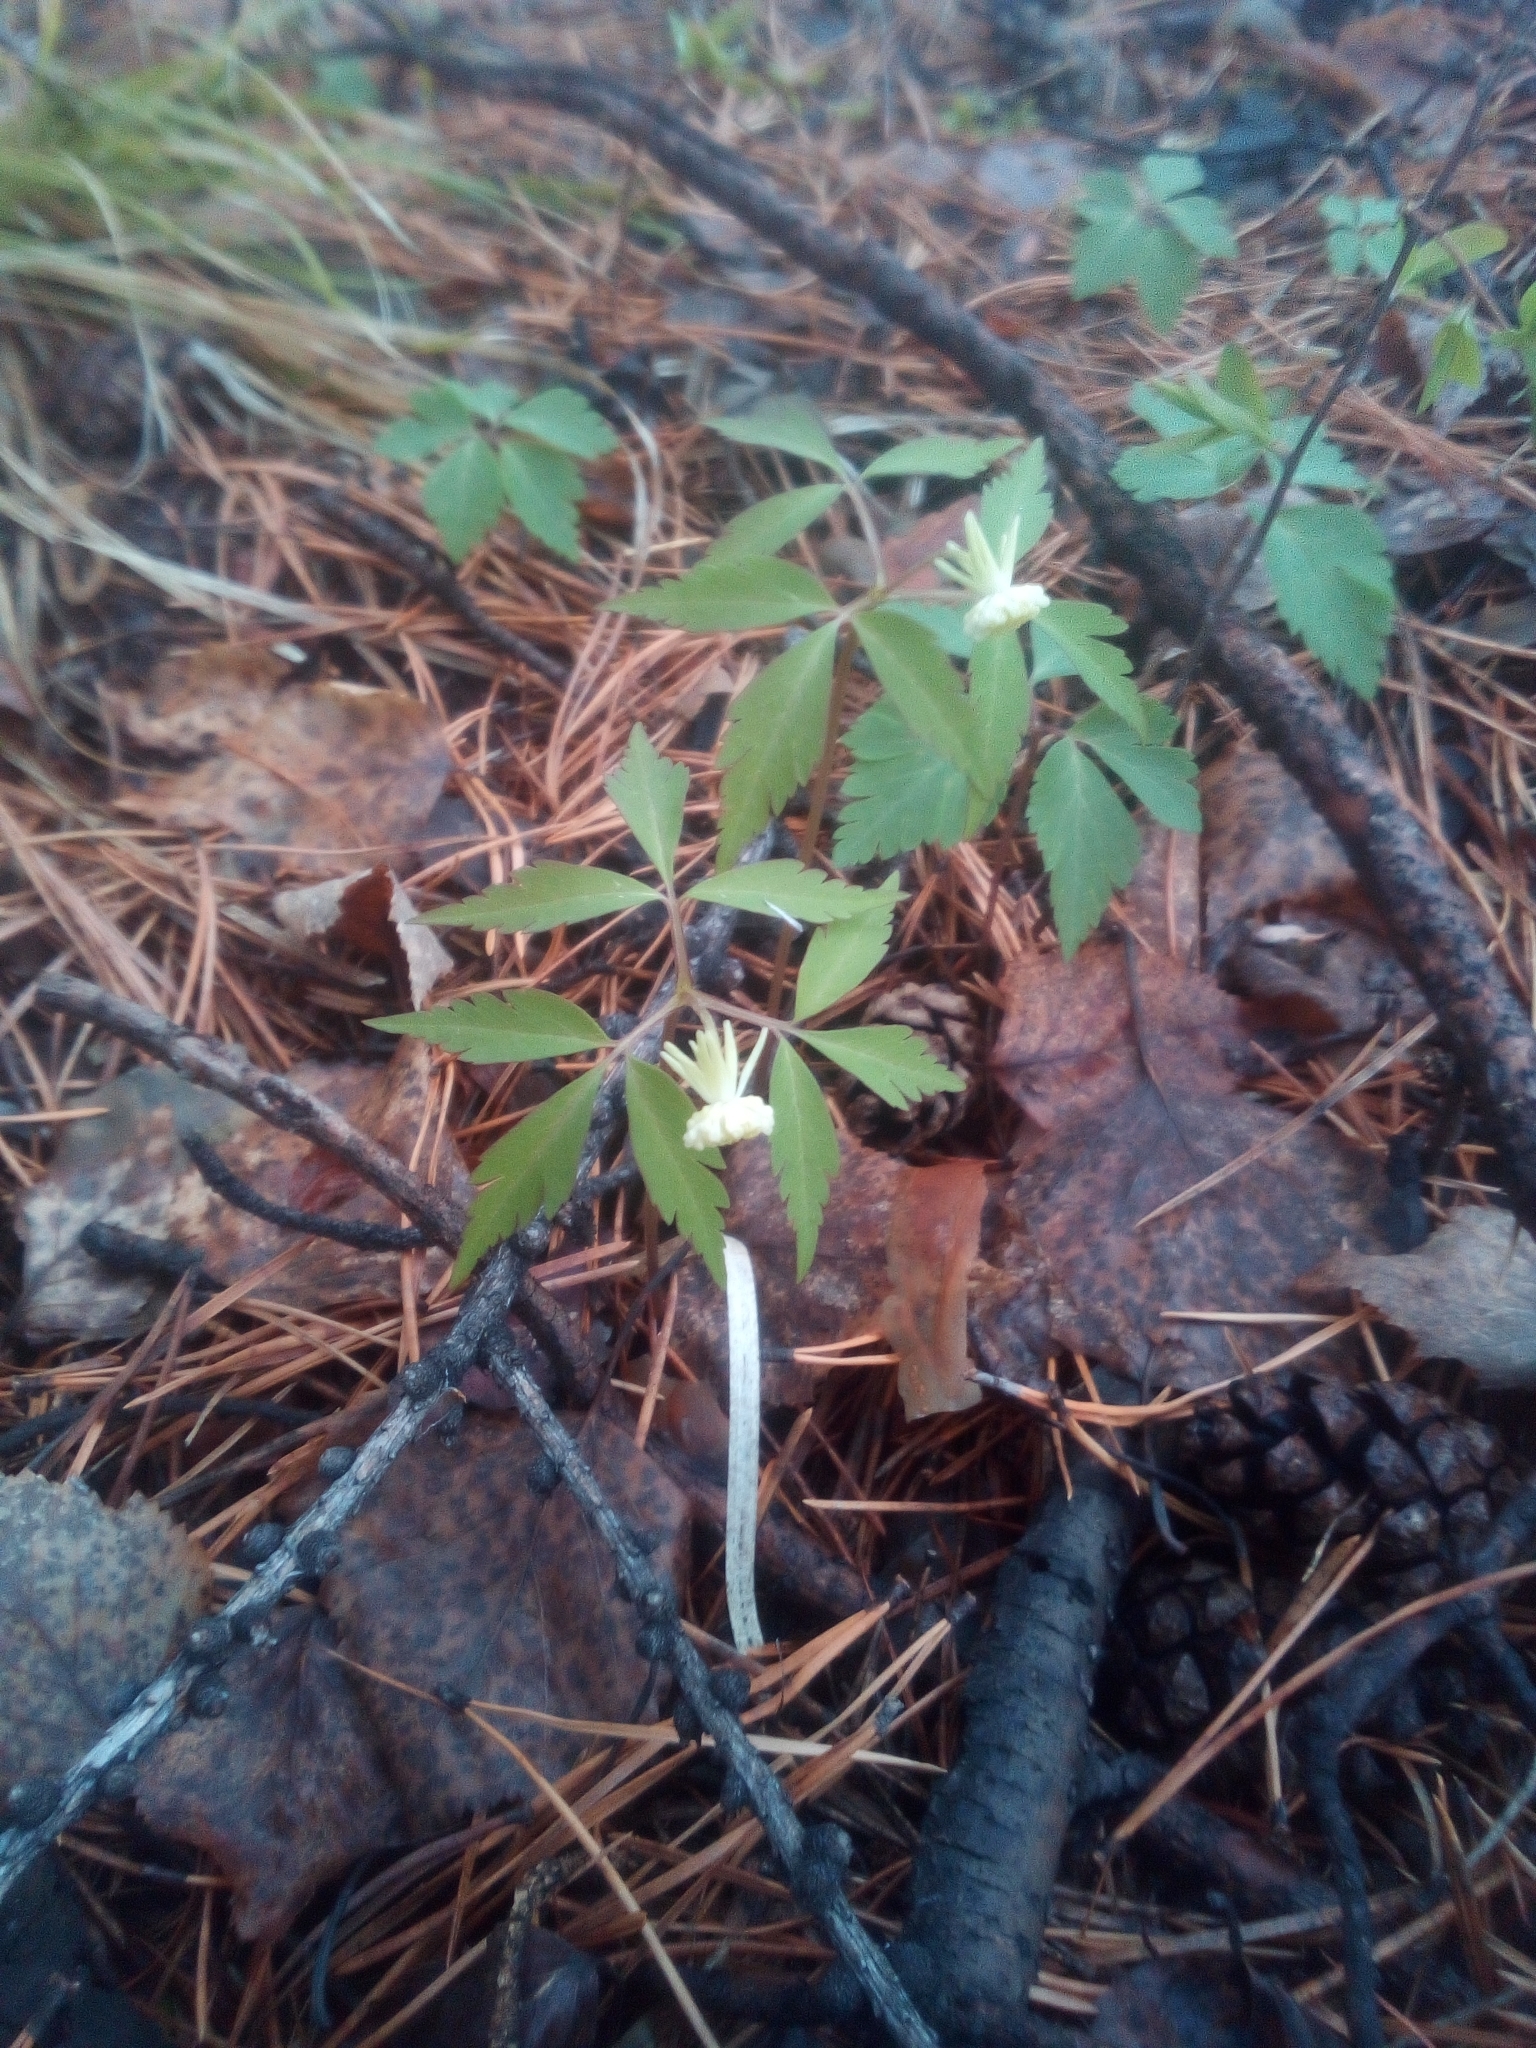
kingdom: Plantae
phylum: Tracheophyta
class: Magnoliopsida
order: Ranunculales
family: Ranunculaceae
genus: Anemone
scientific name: Anemone reflexa
